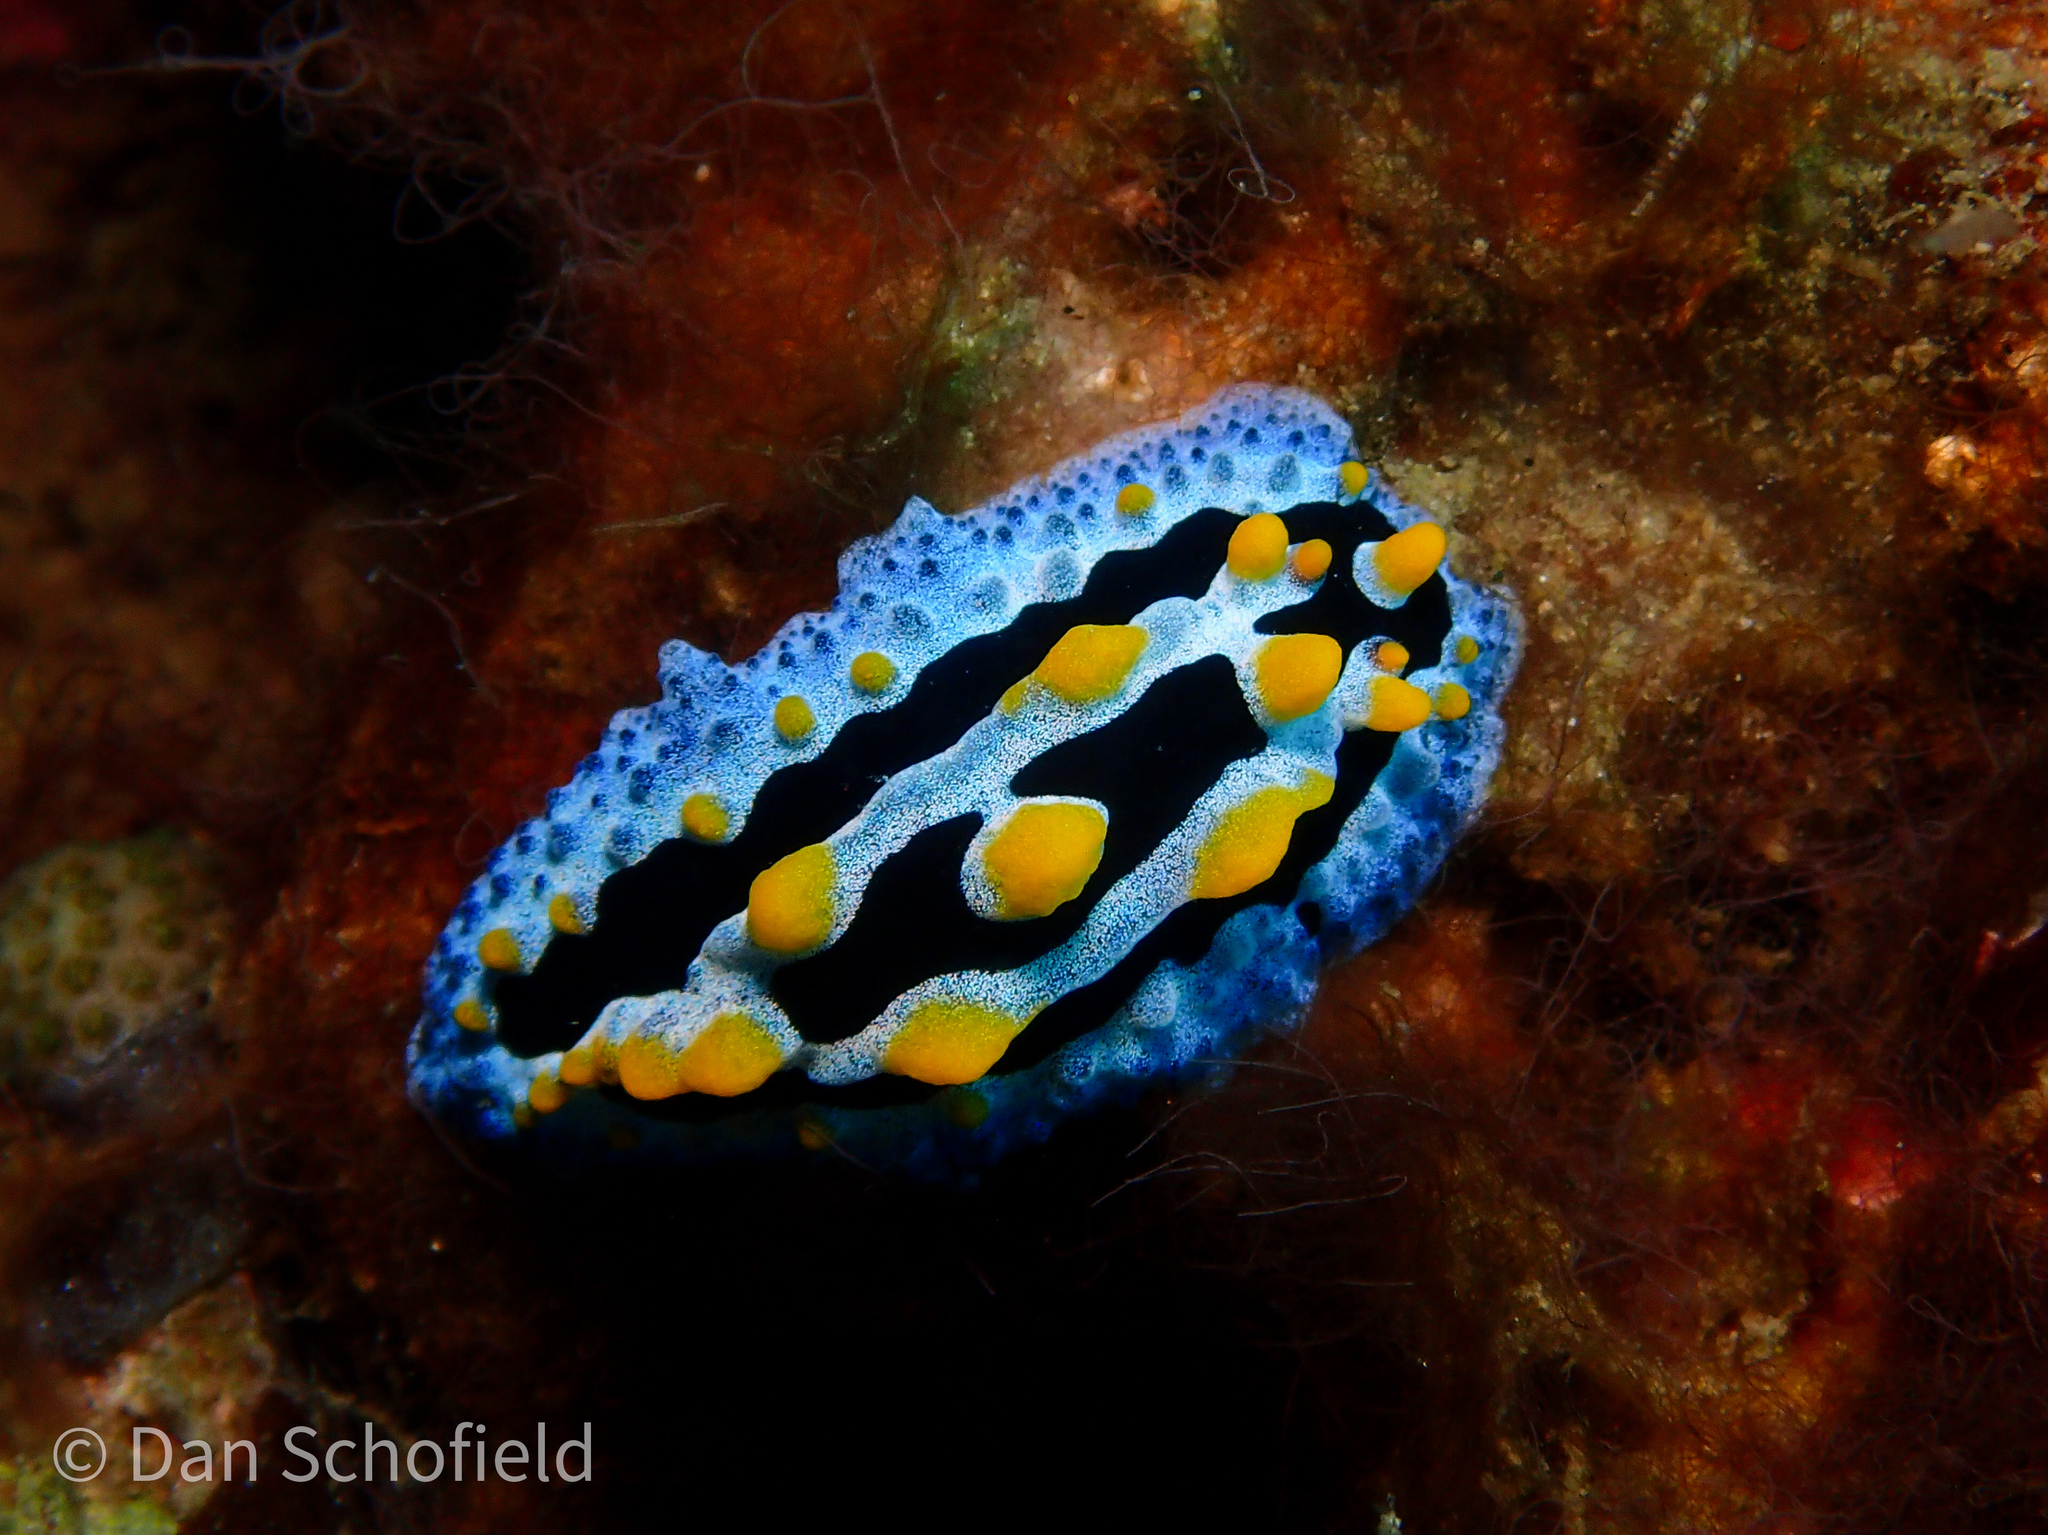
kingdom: Animalia
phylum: Mollusca
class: Gastropoda
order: Nudibranchia
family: Phyllidiidae
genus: Phyllidia
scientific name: Phyllidia coelestis
